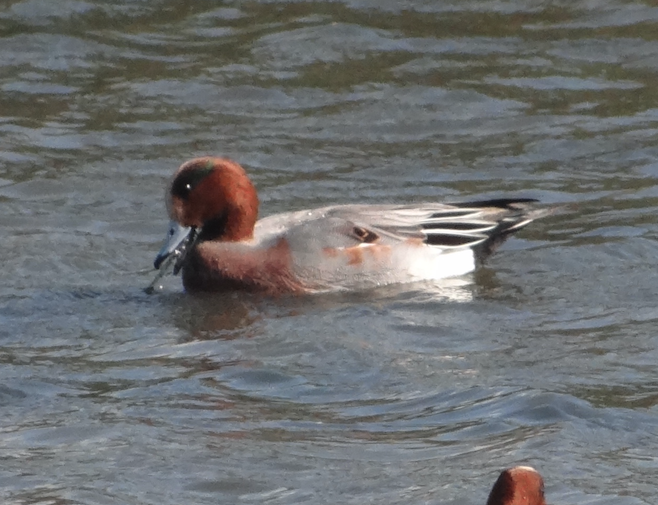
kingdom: Animalia
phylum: Chordata
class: Aves
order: Anseriformes
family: Anatidae
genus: Mareca
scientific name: Mareca penelope
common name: Eurasian wigeon
